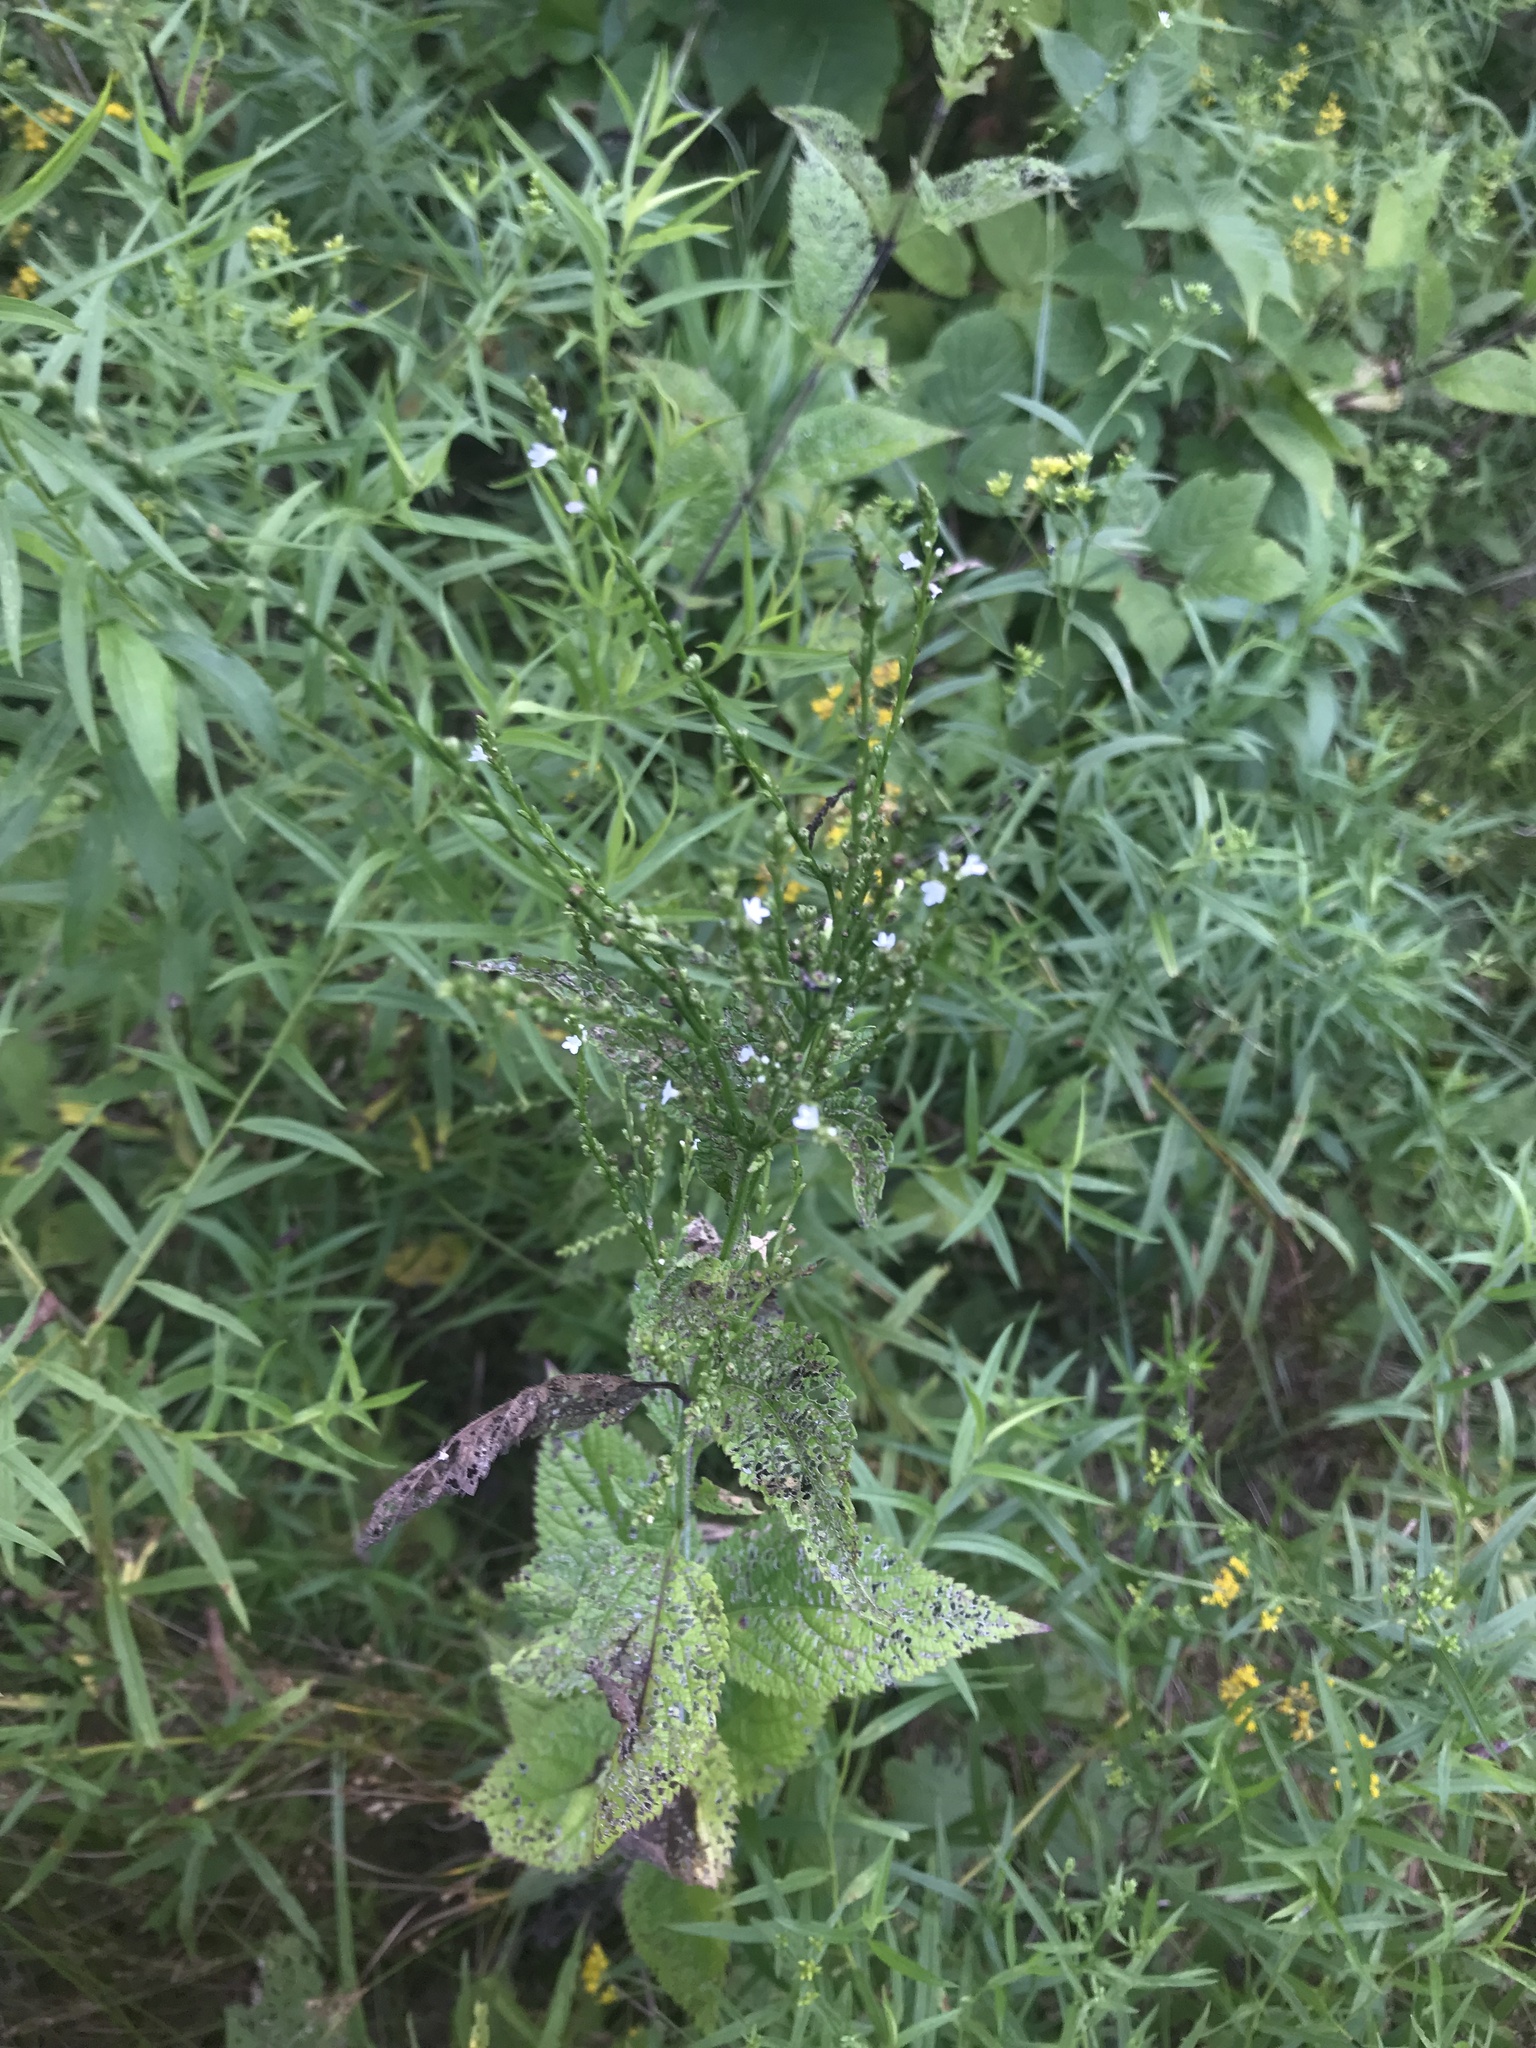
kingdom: Plantae
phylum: Tracheophyta
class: Magnoliopsida
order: Lamiales
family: Verbenaceae
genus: Verbena
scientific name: Verbena urticifolia
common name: Nettle-leaved vervain
